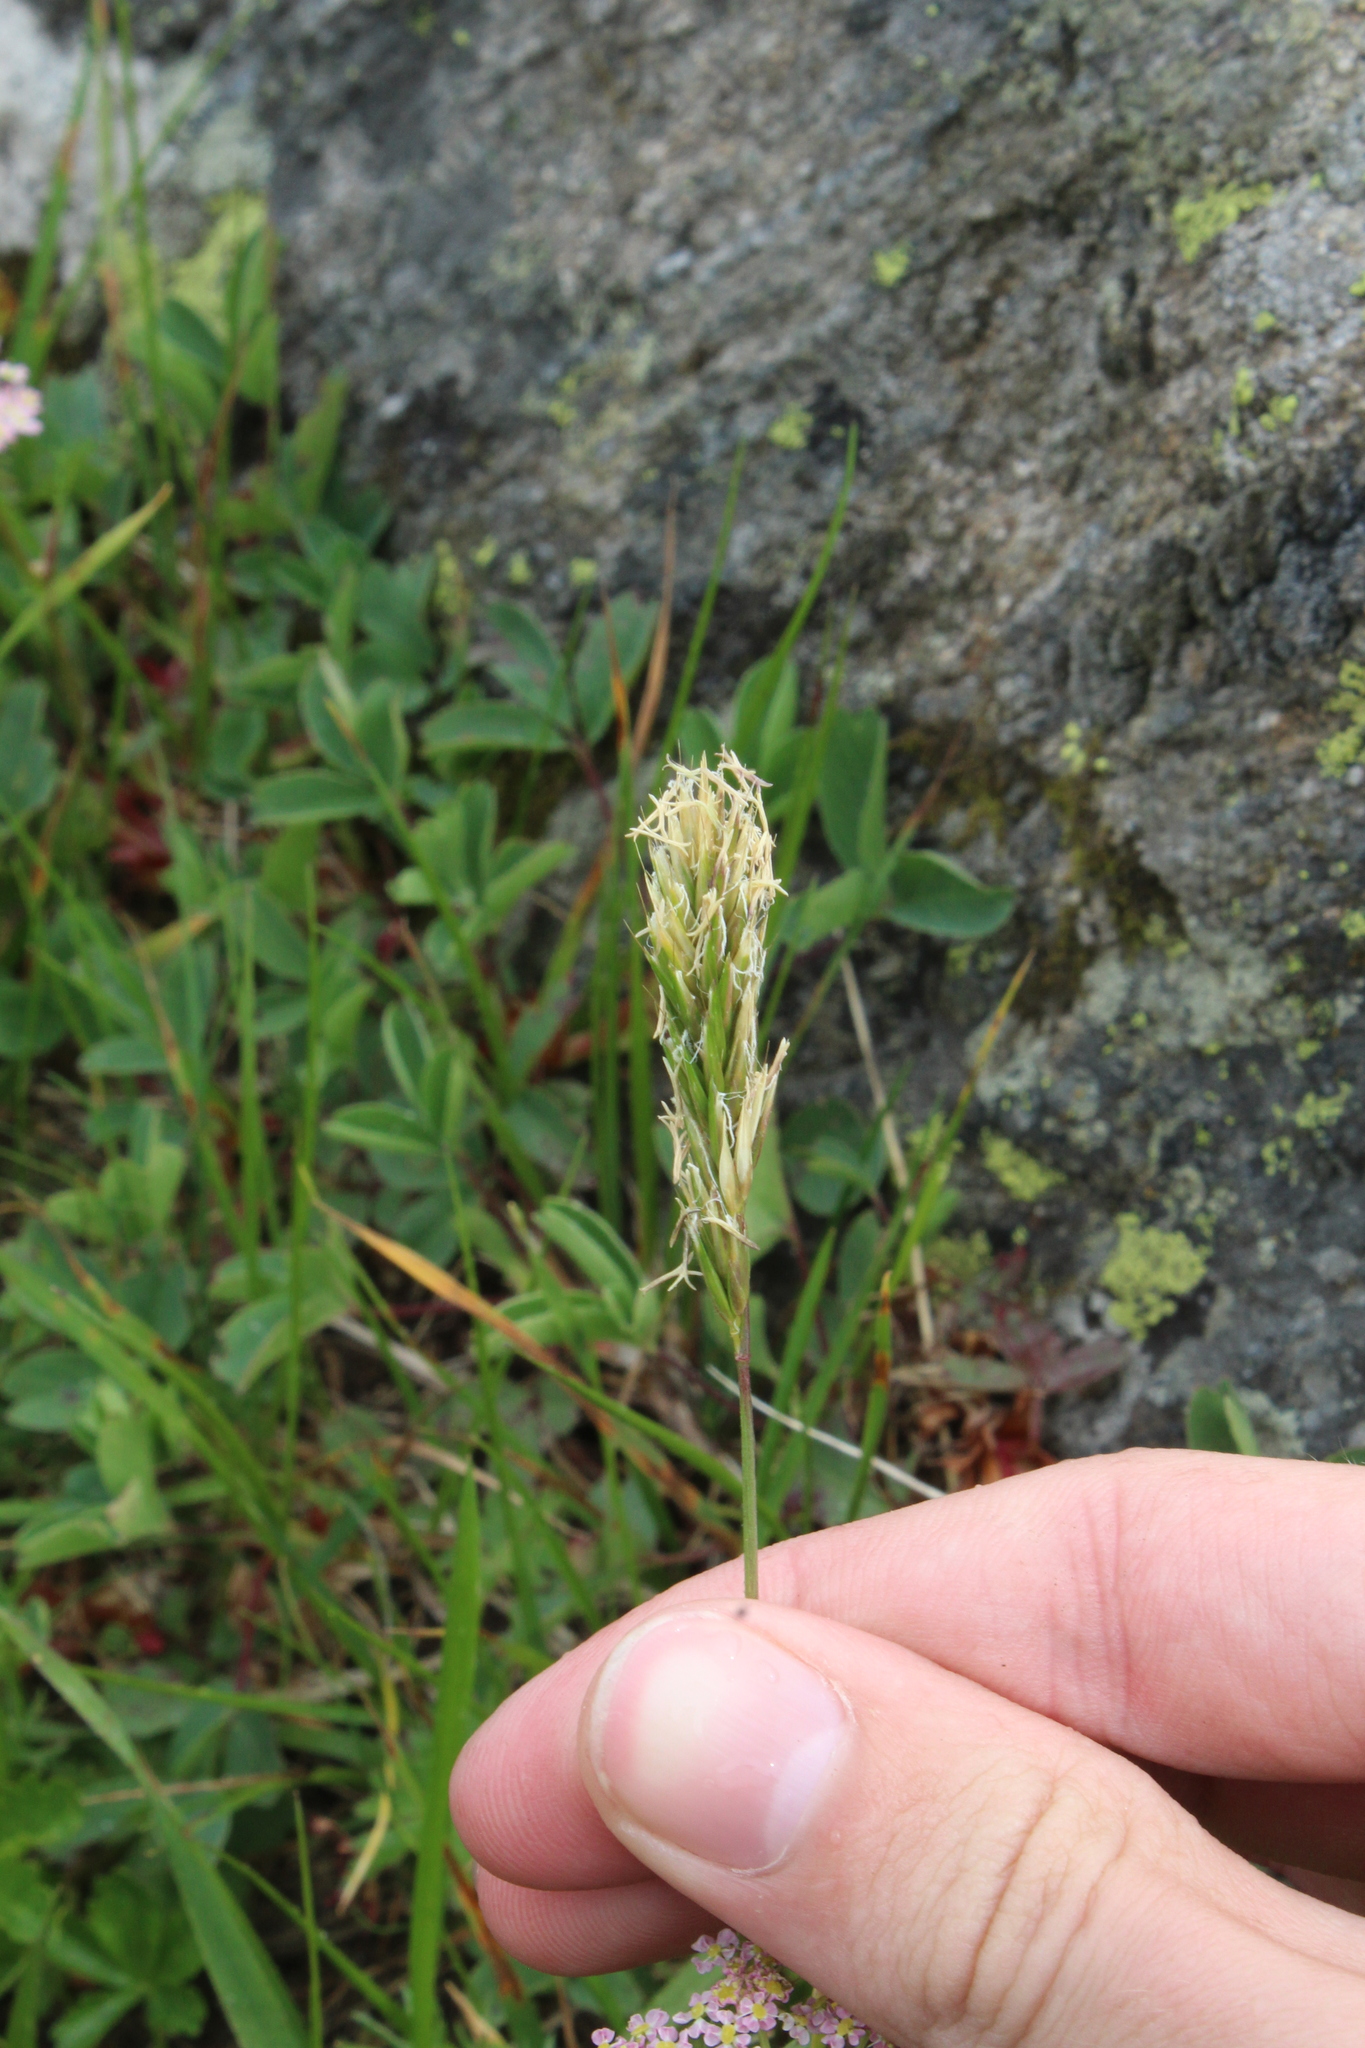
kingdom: Plantae
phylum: Tracheophyta
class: Liliopsida
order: Poales
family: Poaceae
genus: Anthoxanthum
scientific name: Anthoxanthum odoratum
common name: Sweet vernalgrass
